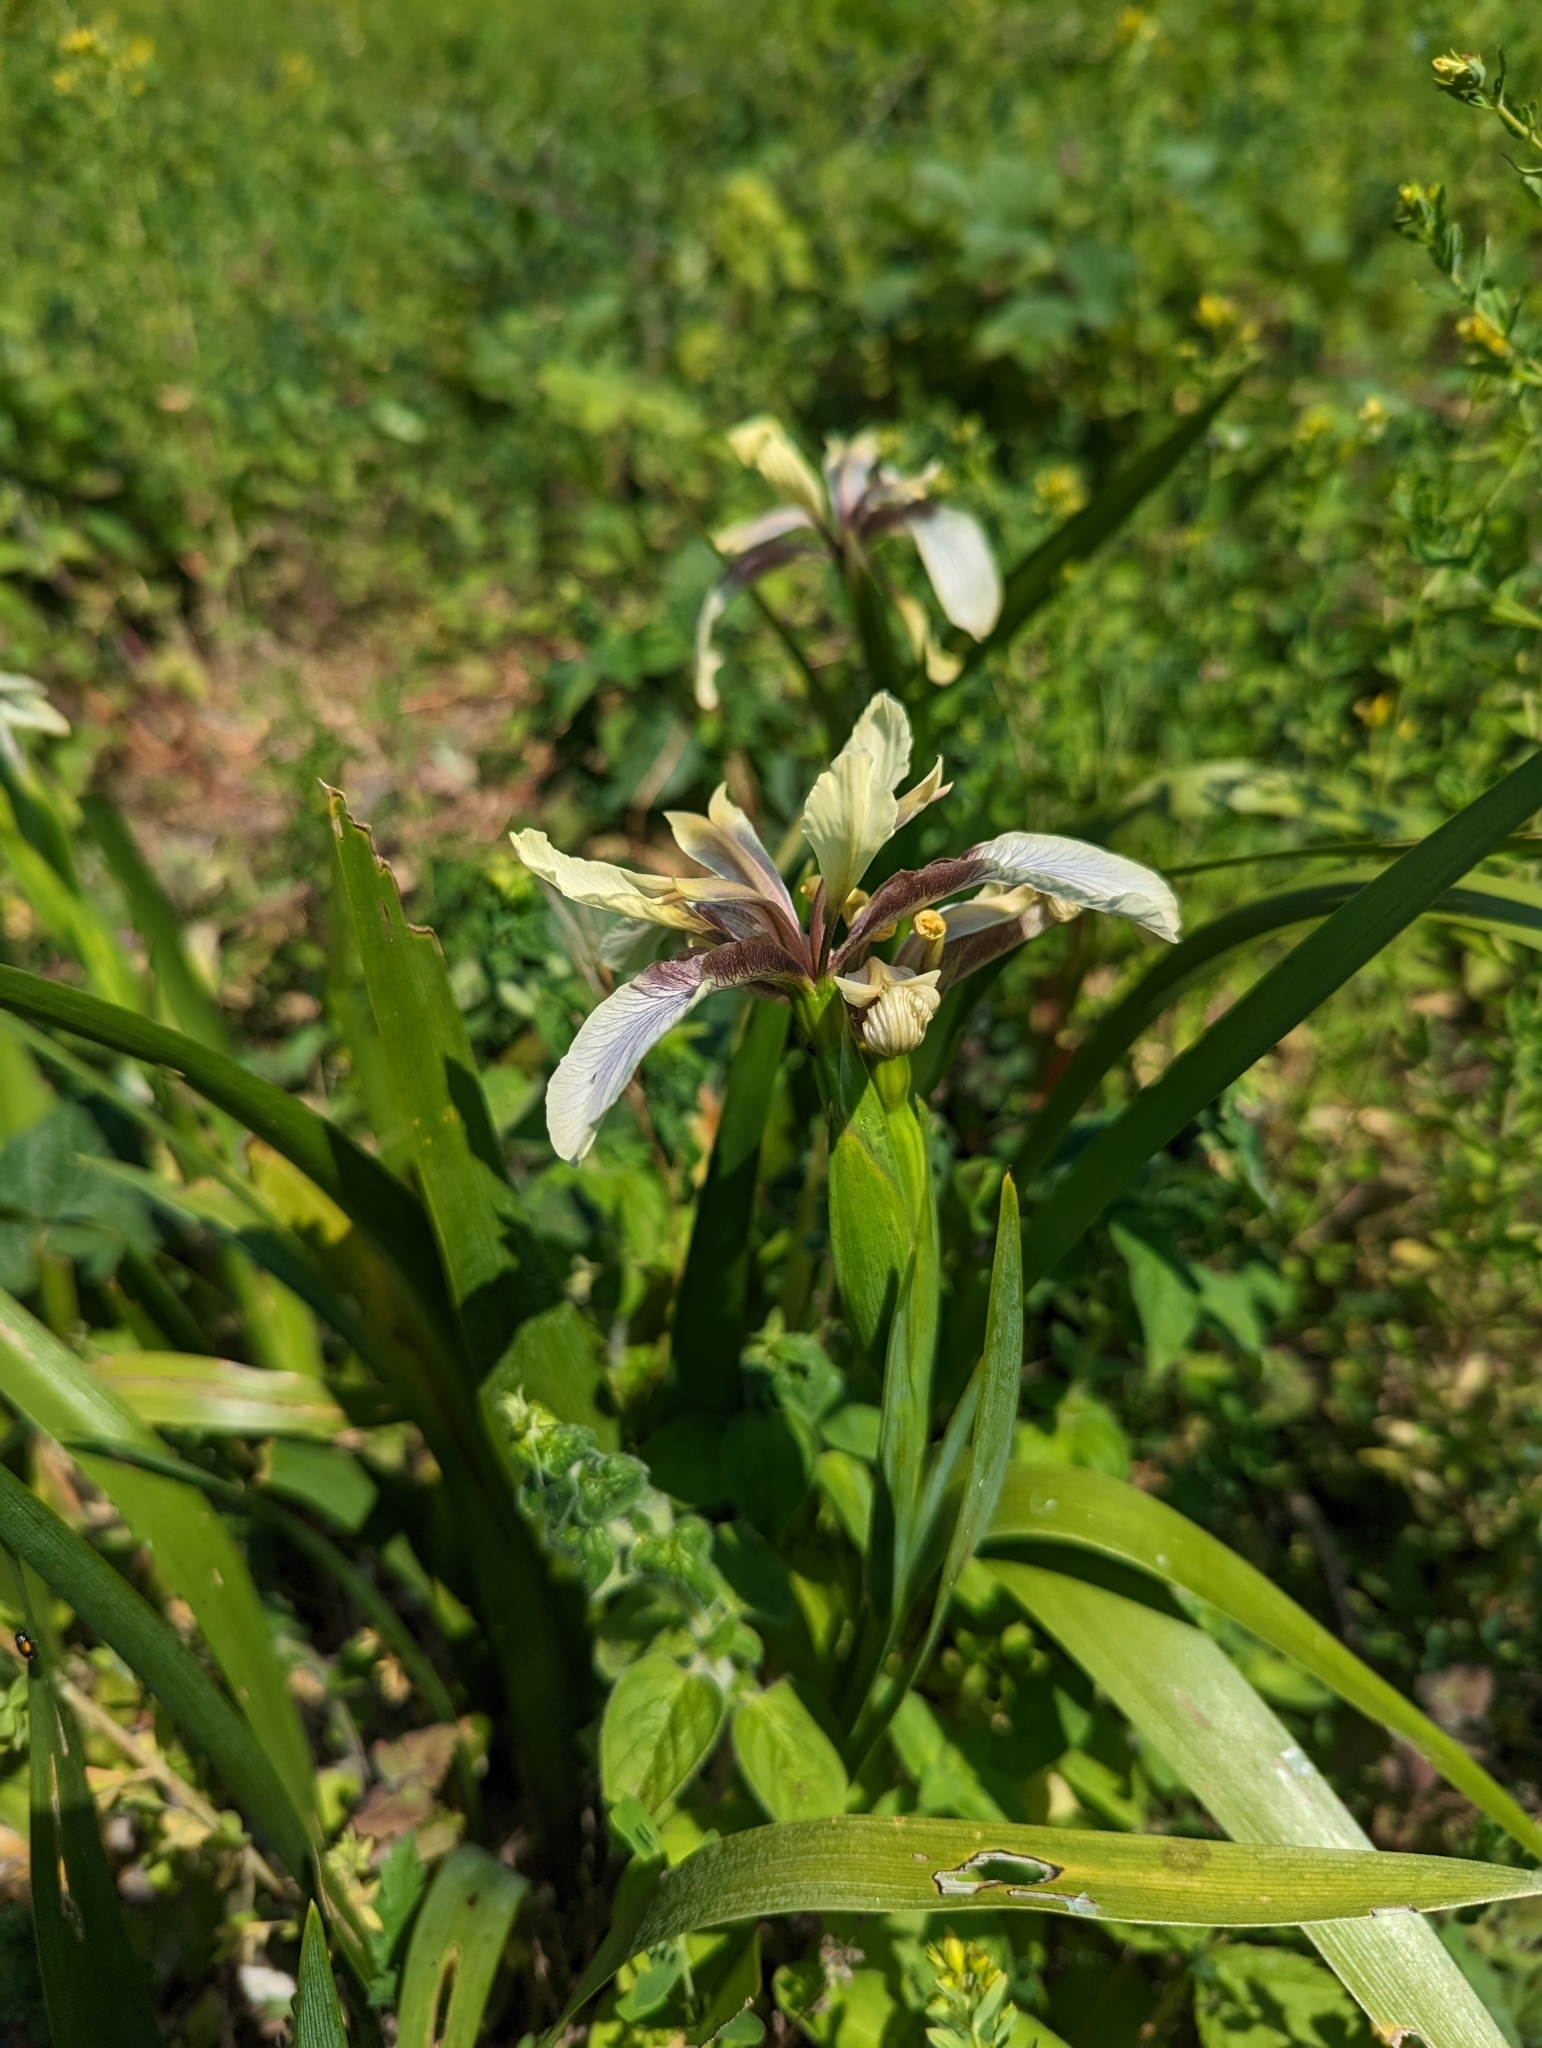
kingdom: Plantae
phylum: Tracheophyta
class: Liliopsida
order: Asparagales
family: Iridaceae
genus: Iris
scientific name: Iris foetidissima
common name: Stinking iris
